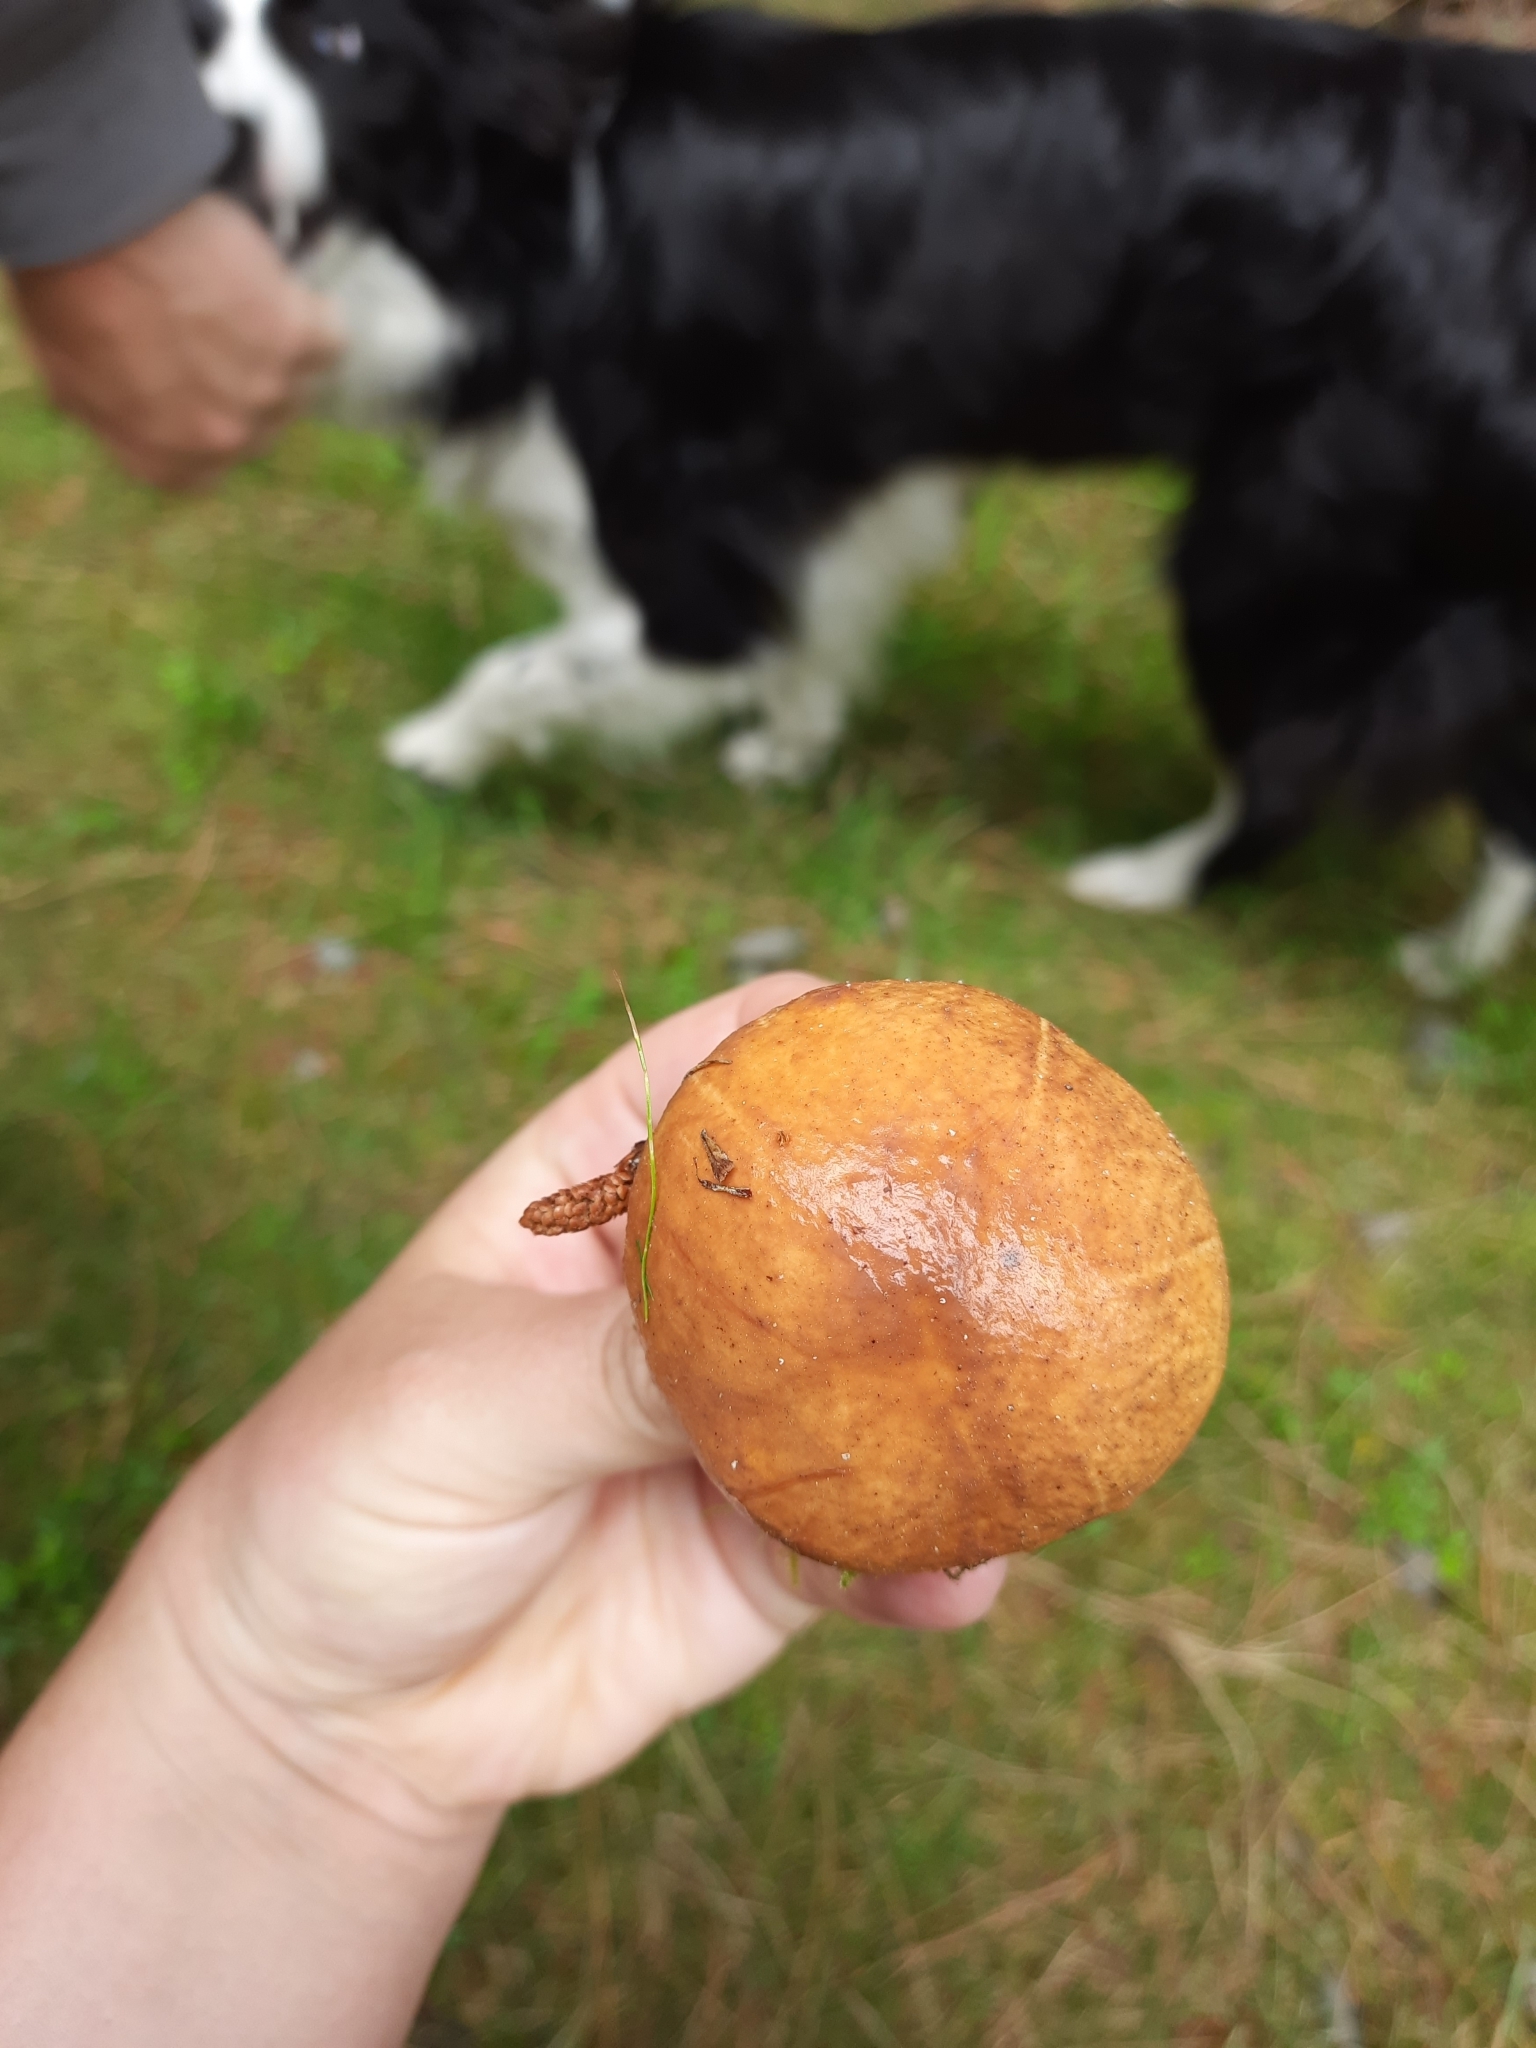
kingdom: Fungi
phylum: Basidiomycota
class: Agaricomycetes
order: Boletales
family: Suillaceae
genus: Suillus
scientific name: Suillus granulatus
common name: Weeping bolete
